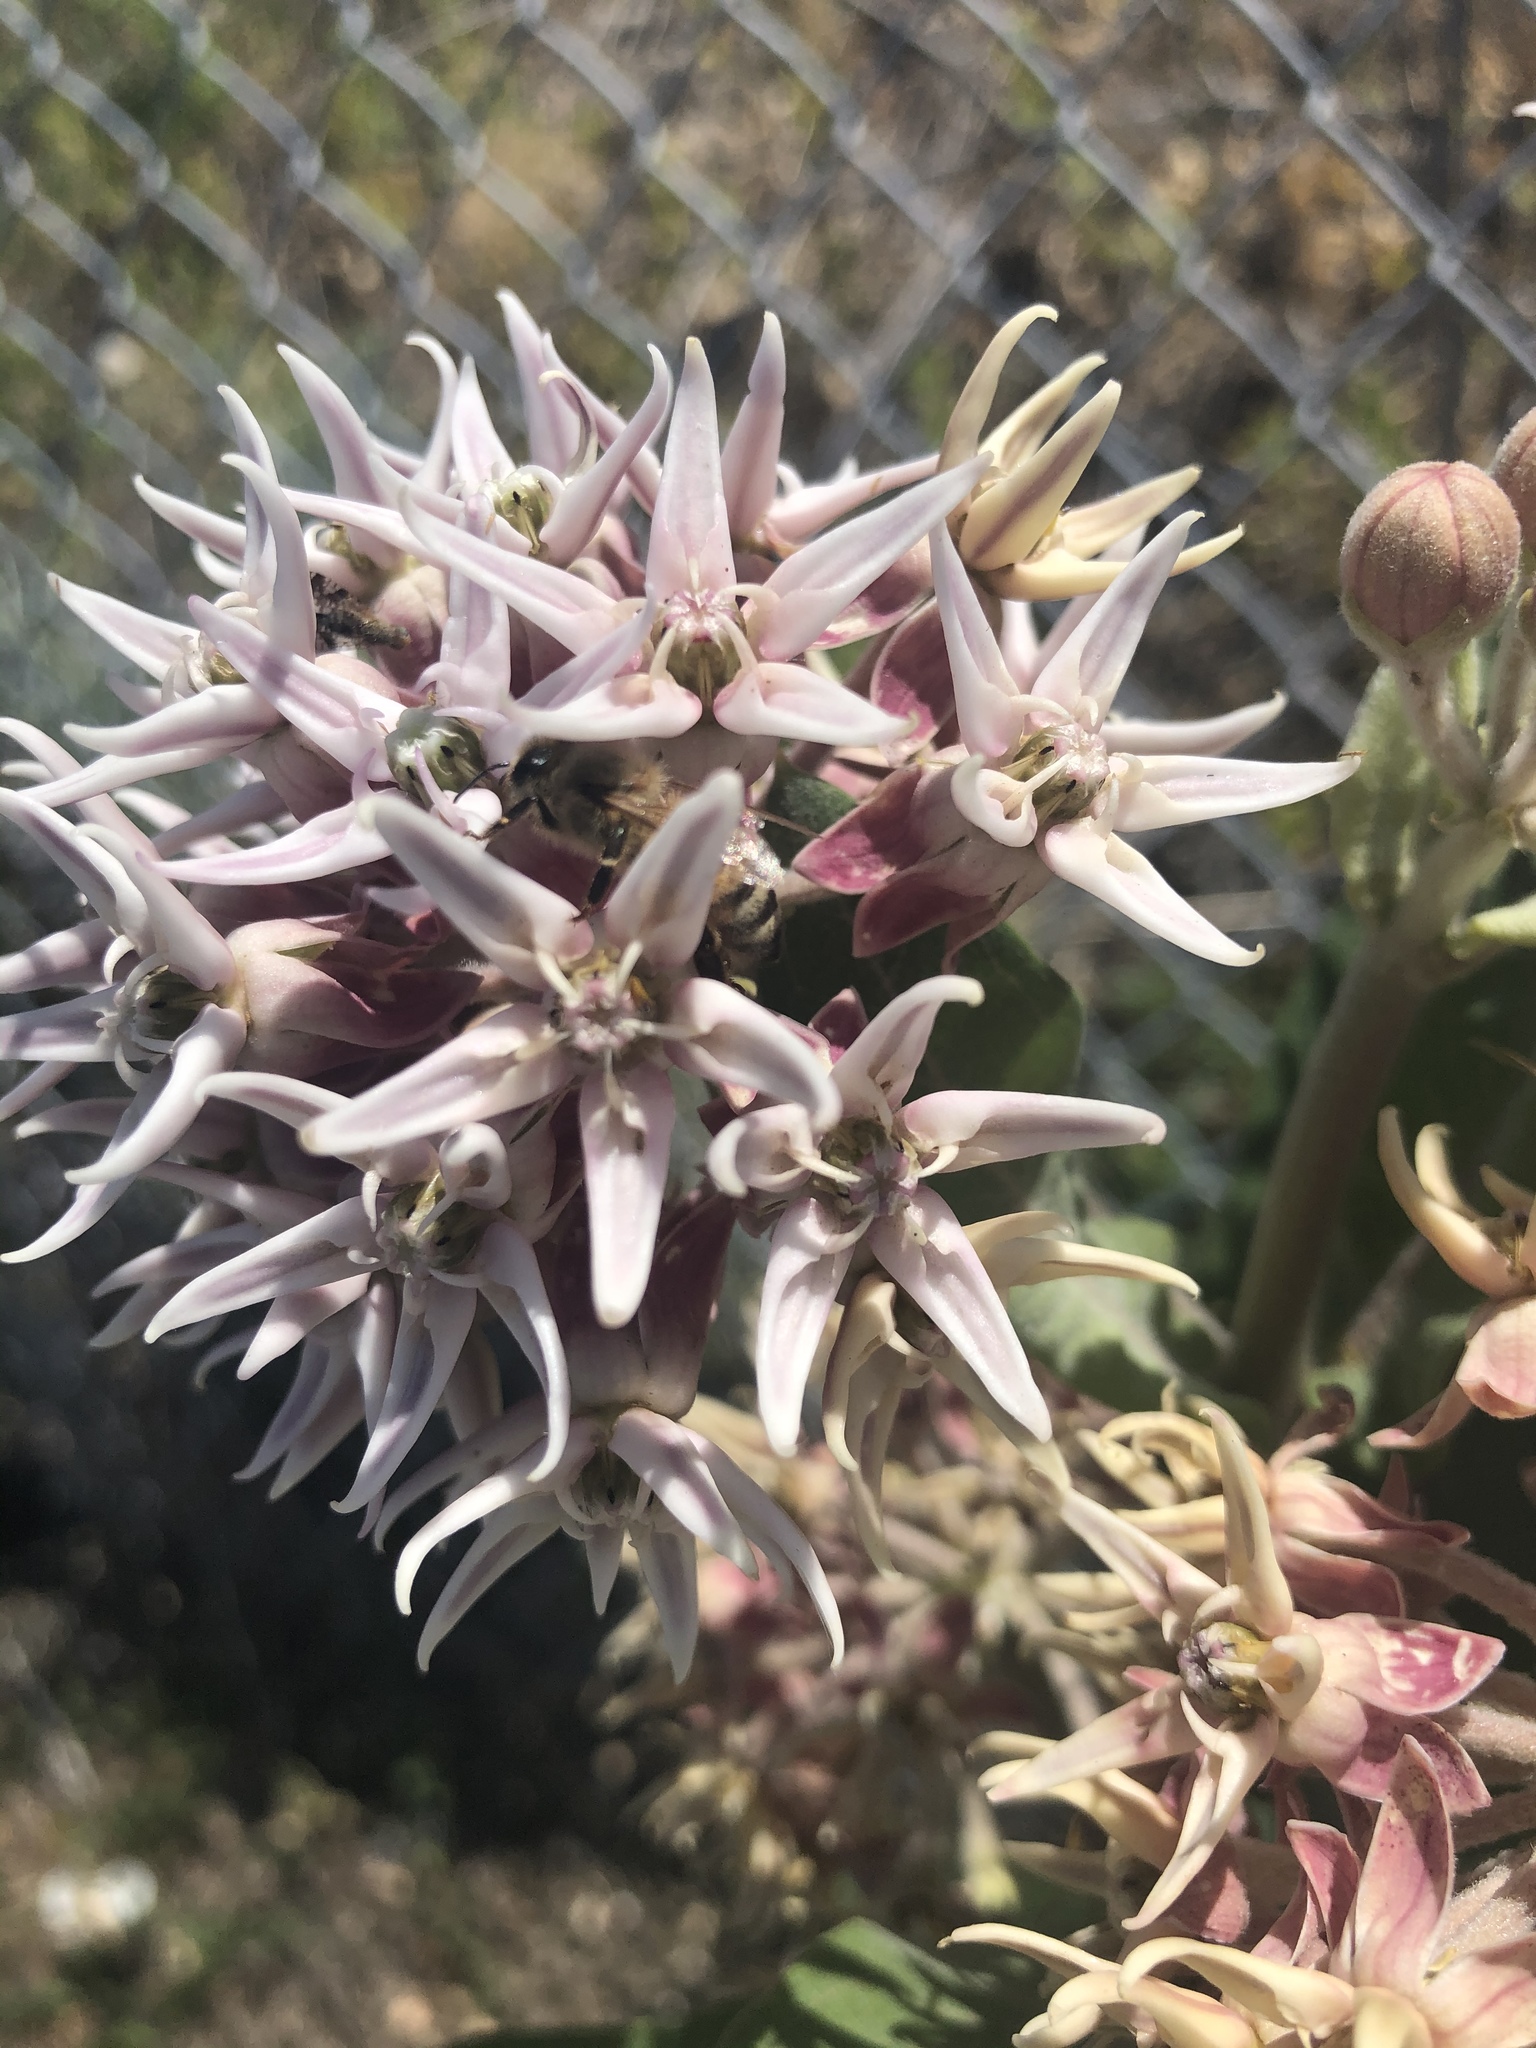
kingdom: Plantae
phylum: Tracheophyta
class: Magnoliopsida
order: Gentianales
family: Apocynaceae
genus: Asclepias
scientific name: Asclepias speciosa
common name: Showy milkweed
